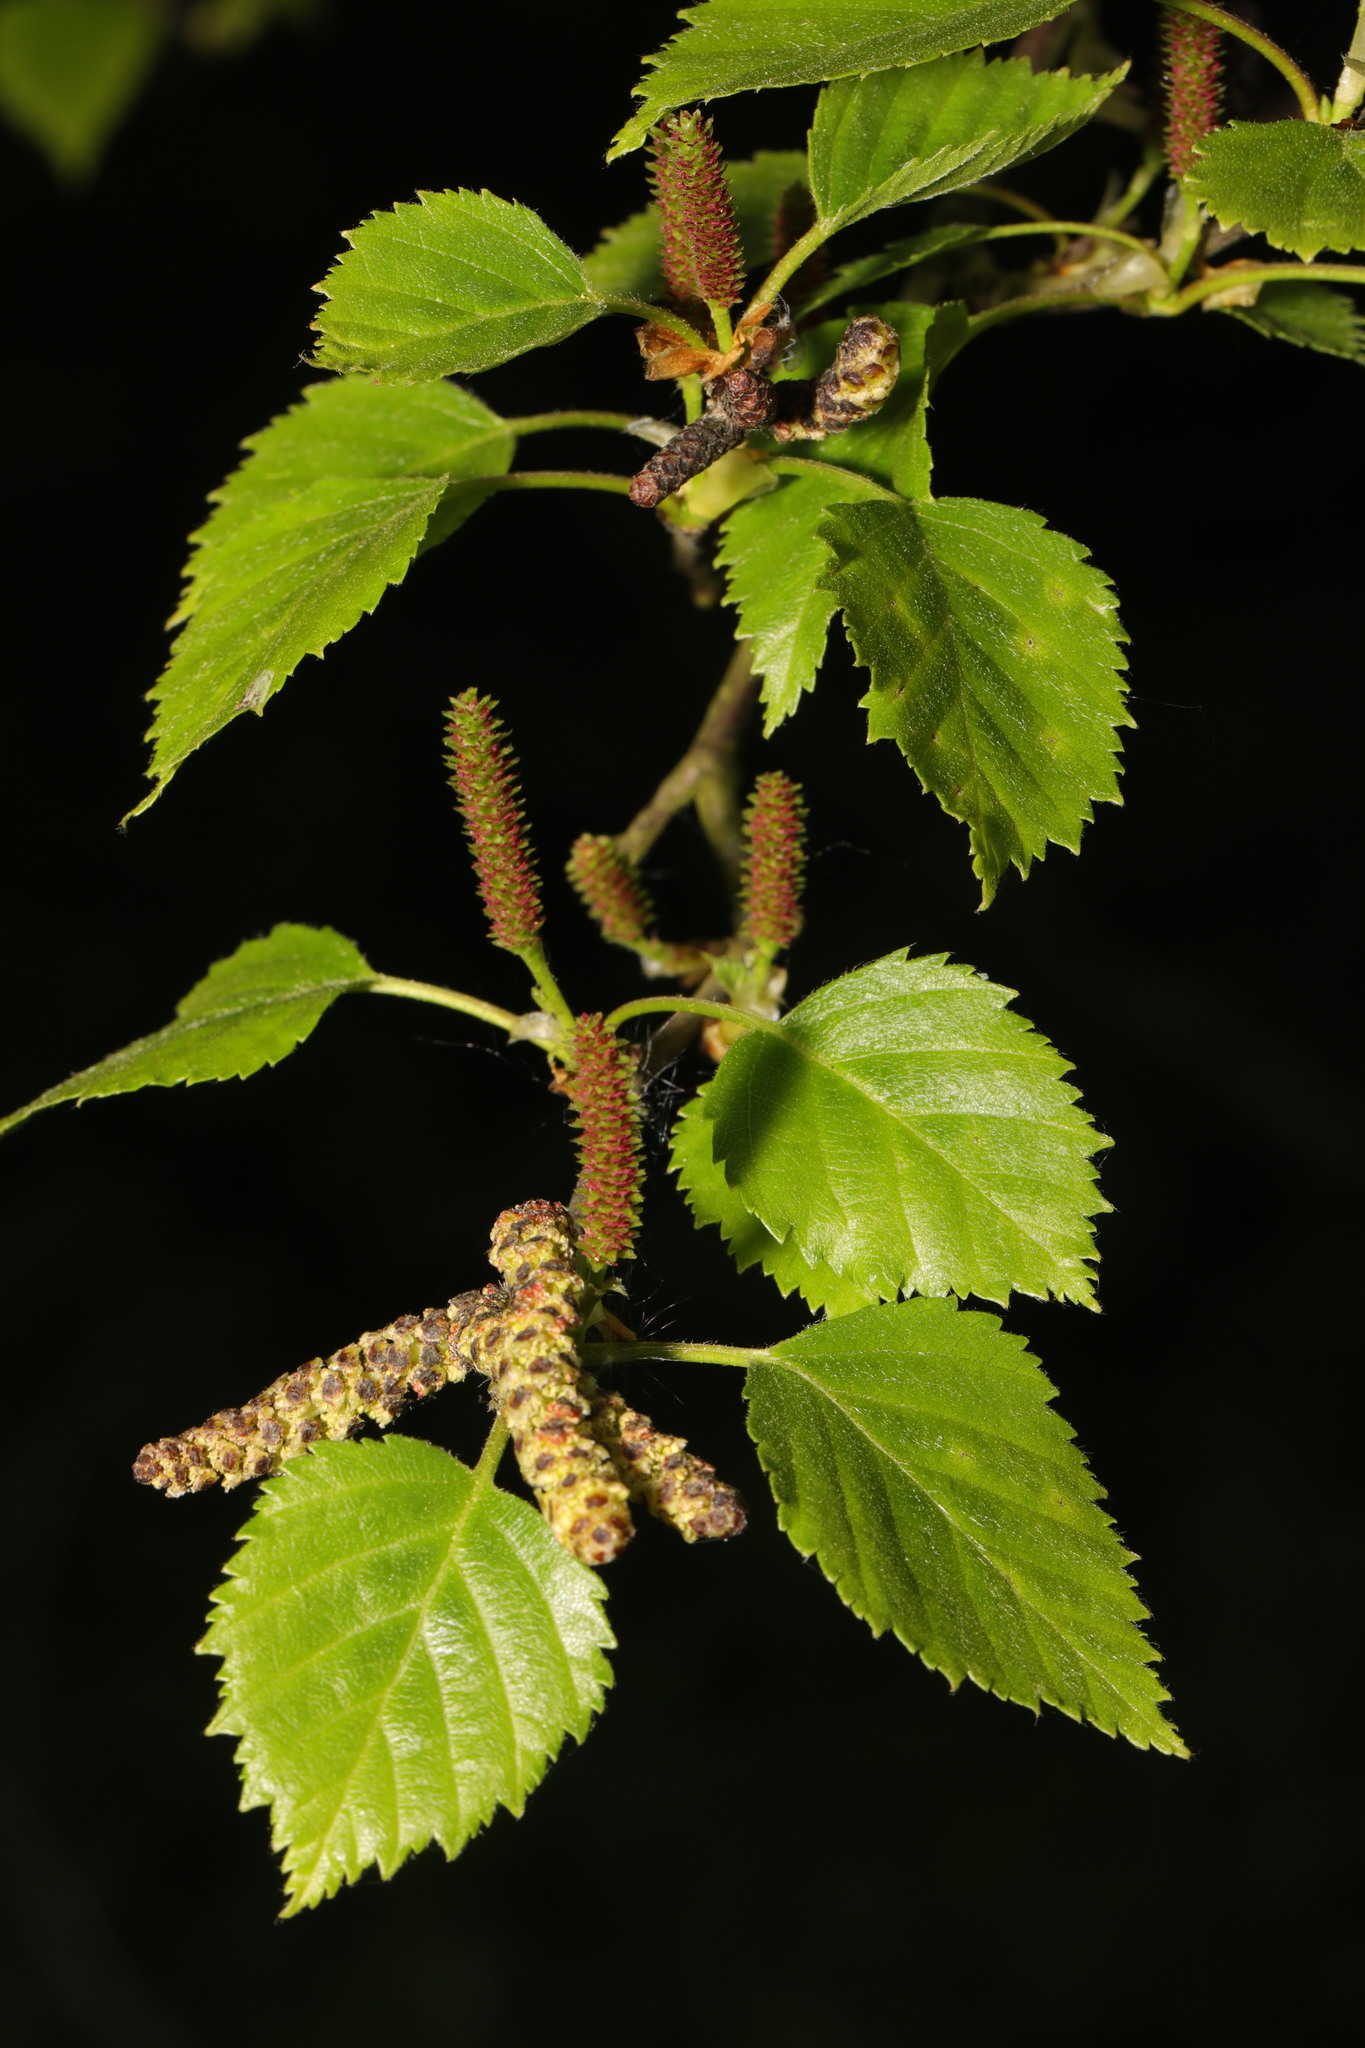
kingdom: Plantae
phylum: Tracheophyta
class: Magnoliopsida
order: Fagales
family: Betulaceae
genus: Betula
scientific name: Betula pendula
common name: Silver birch
